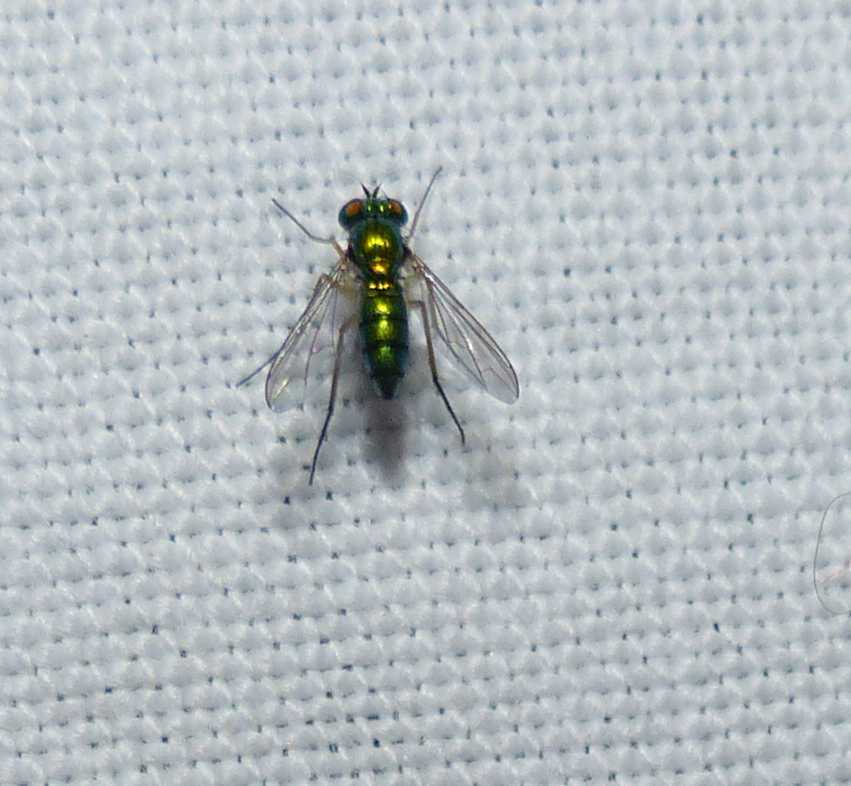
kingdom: Animalia
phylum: Arthropoda
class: Insecta
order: Diptera
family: Dolichopodidae
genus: Condylostylus
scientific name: Condylostylus
